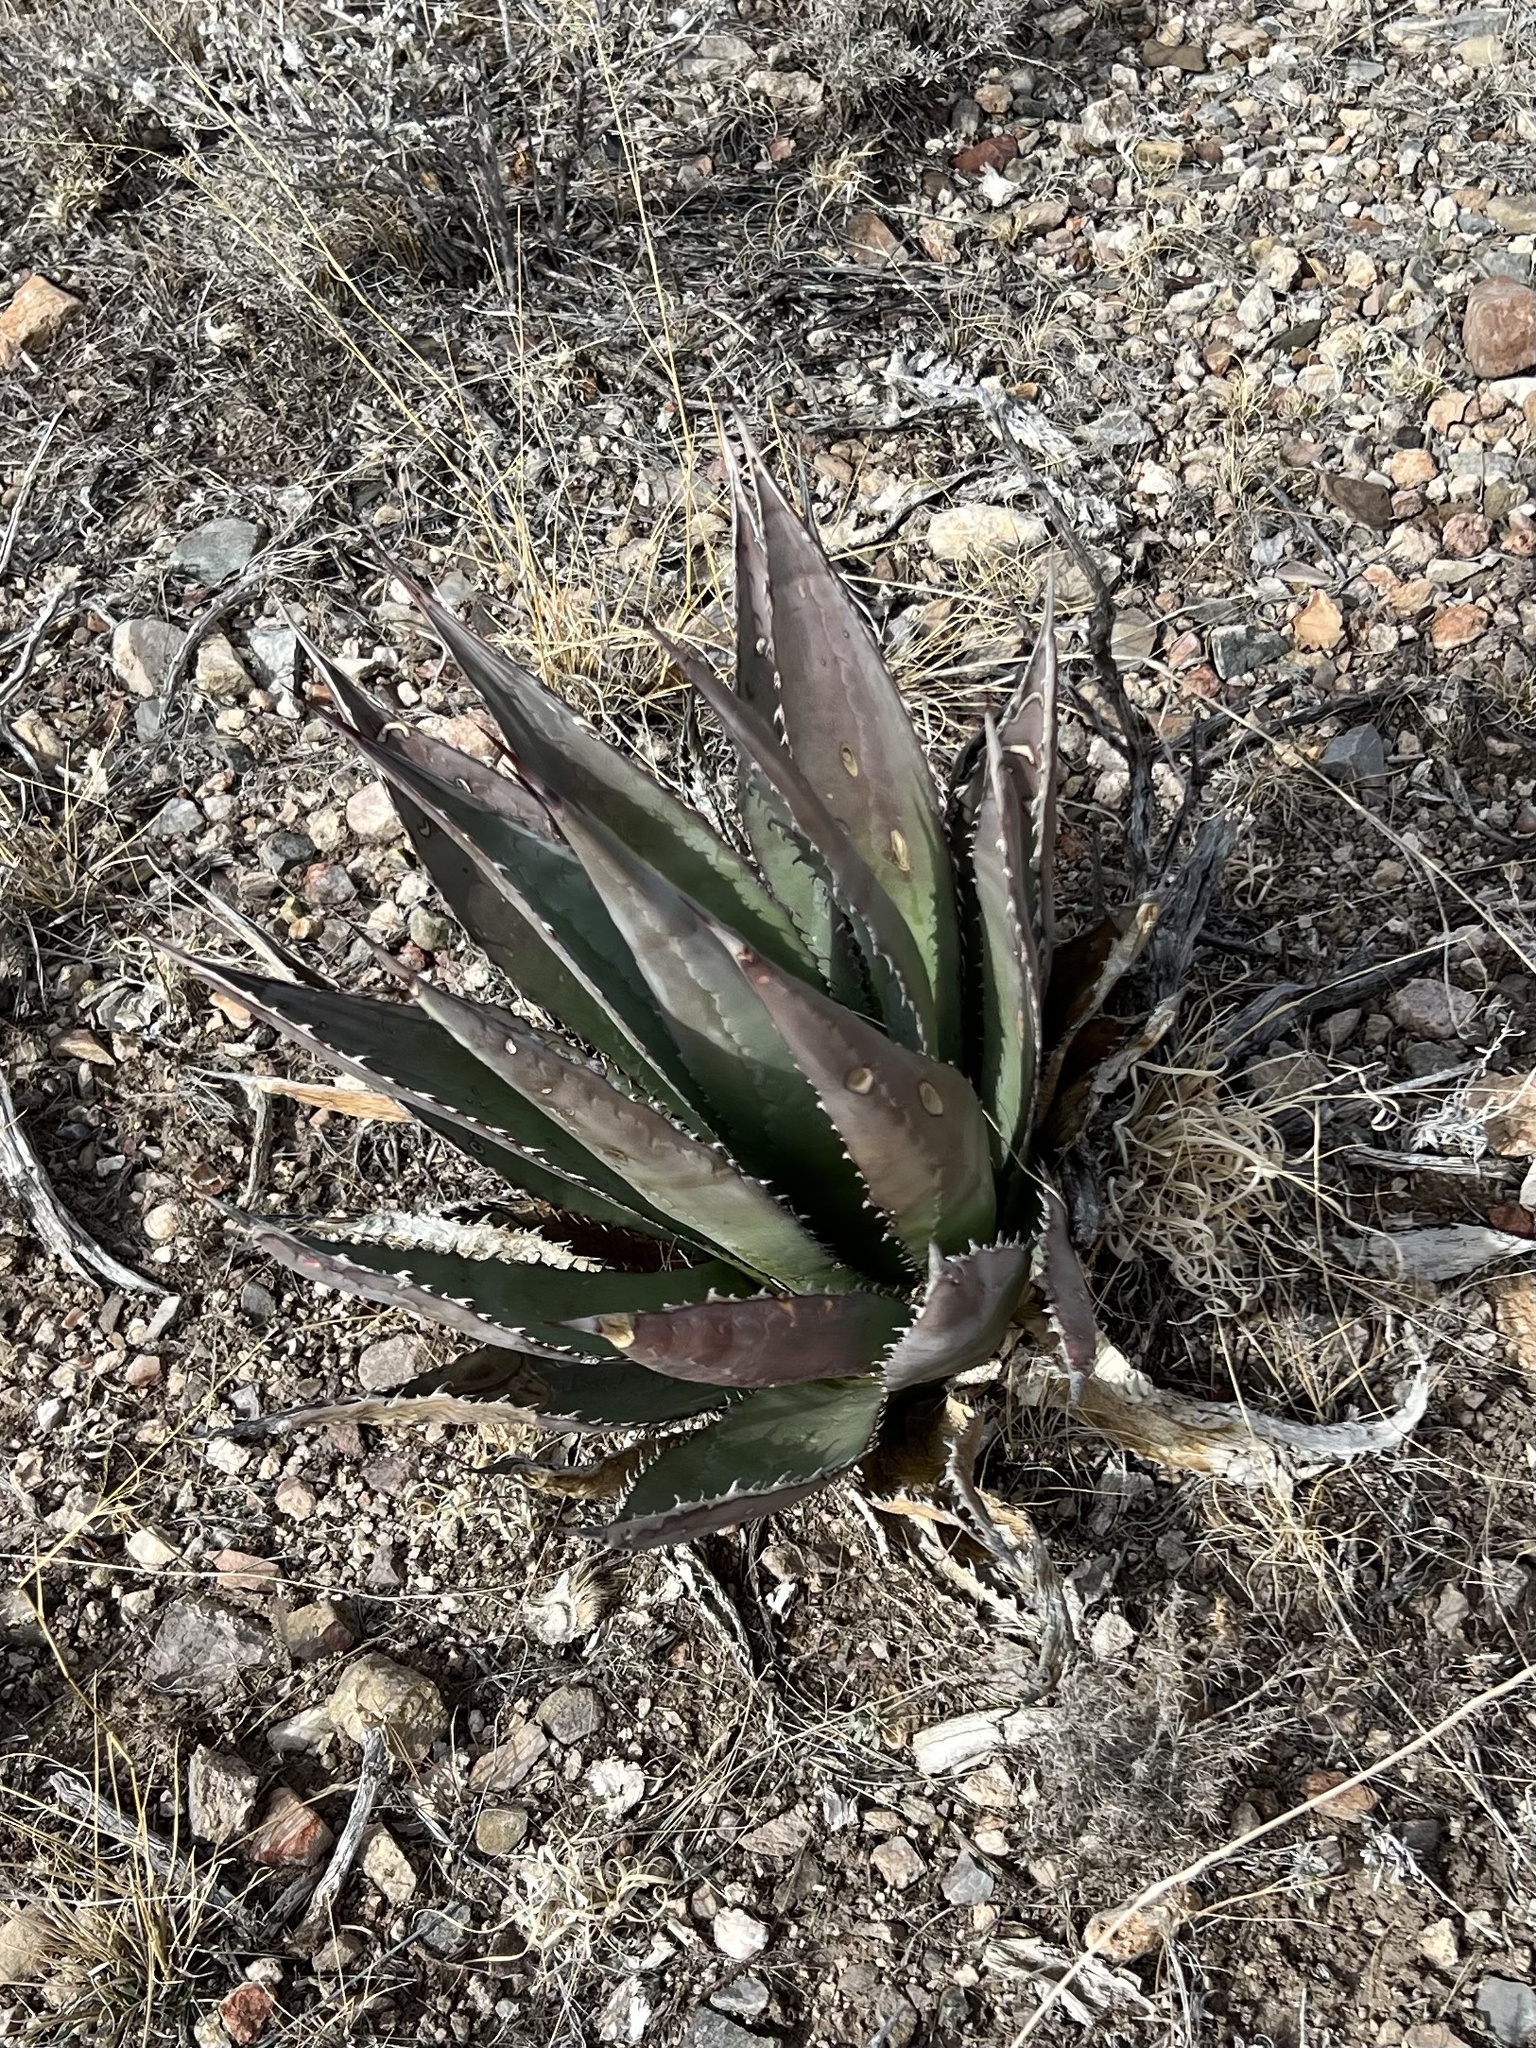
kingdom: Plantae
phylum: Tracheophyta
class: Liliopsida
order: Asparagales
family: Asparagaceae
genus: Agave
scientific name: Agave palmeri
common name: Palmer agave
